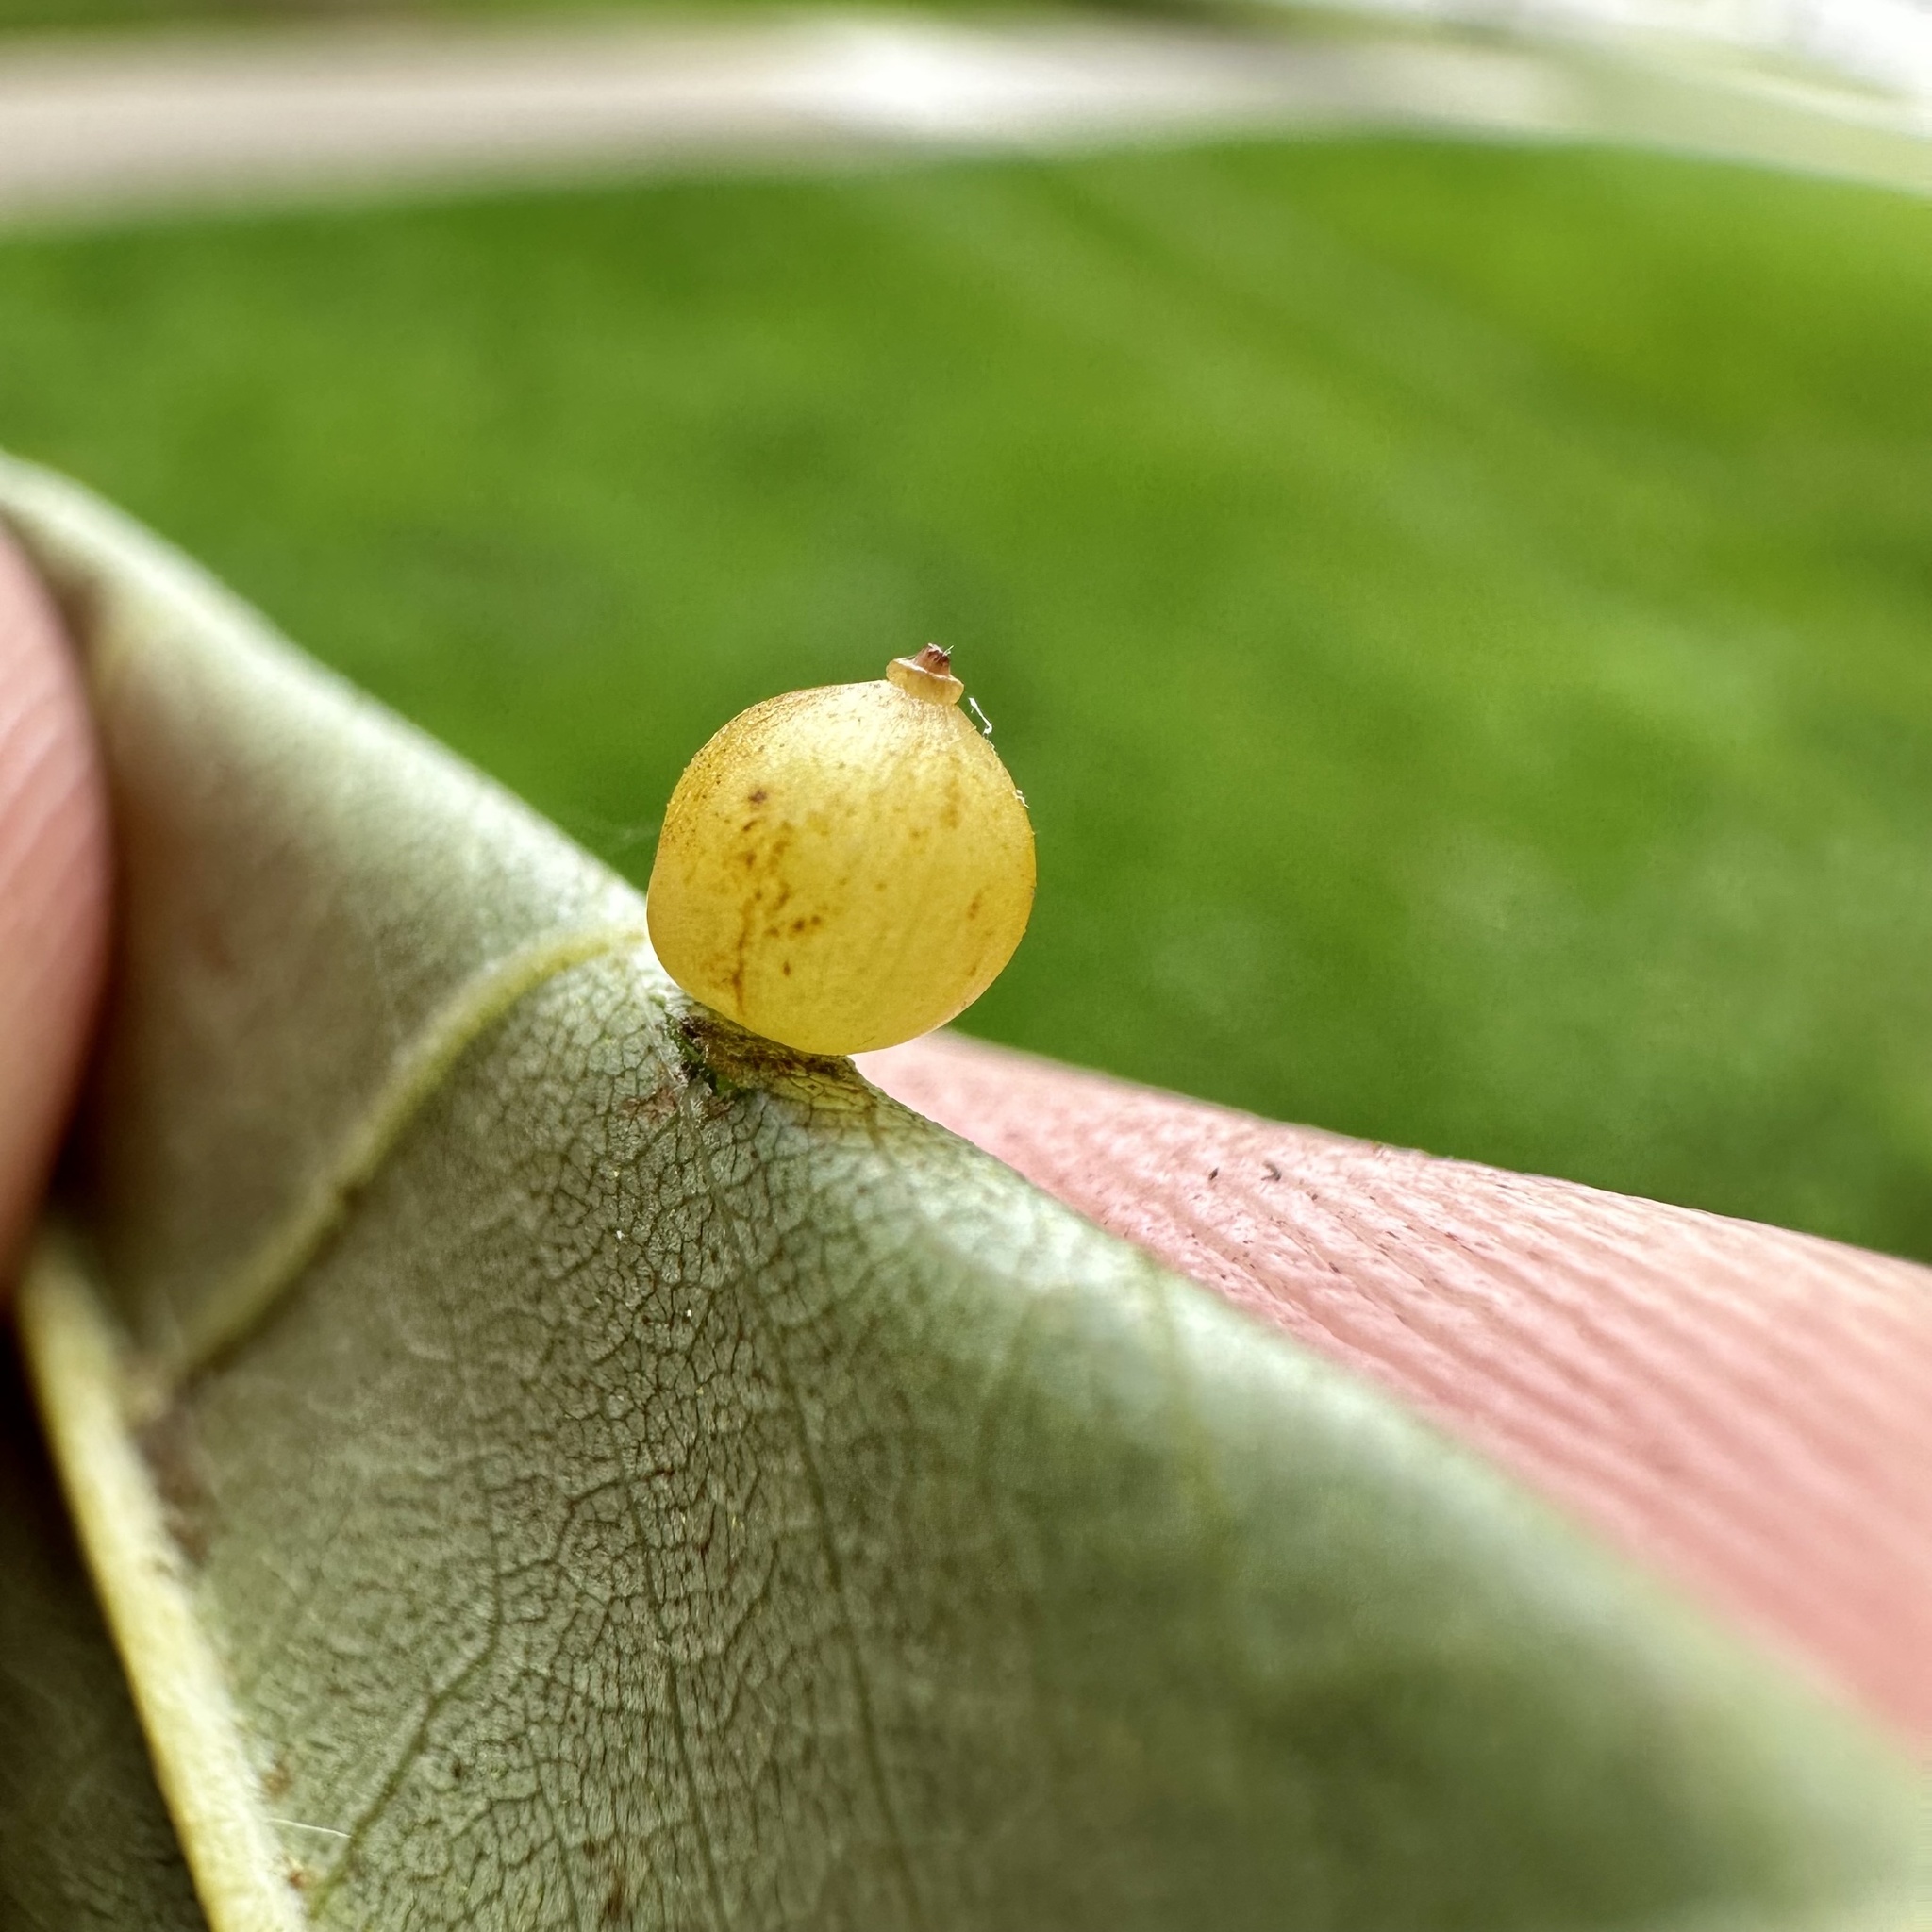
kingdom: Animalia
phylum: Arthropoda
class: Insecta
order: Diptera
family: Cecidomyiidae
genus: Caryomyia
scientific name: Caryomyia leviglobus
